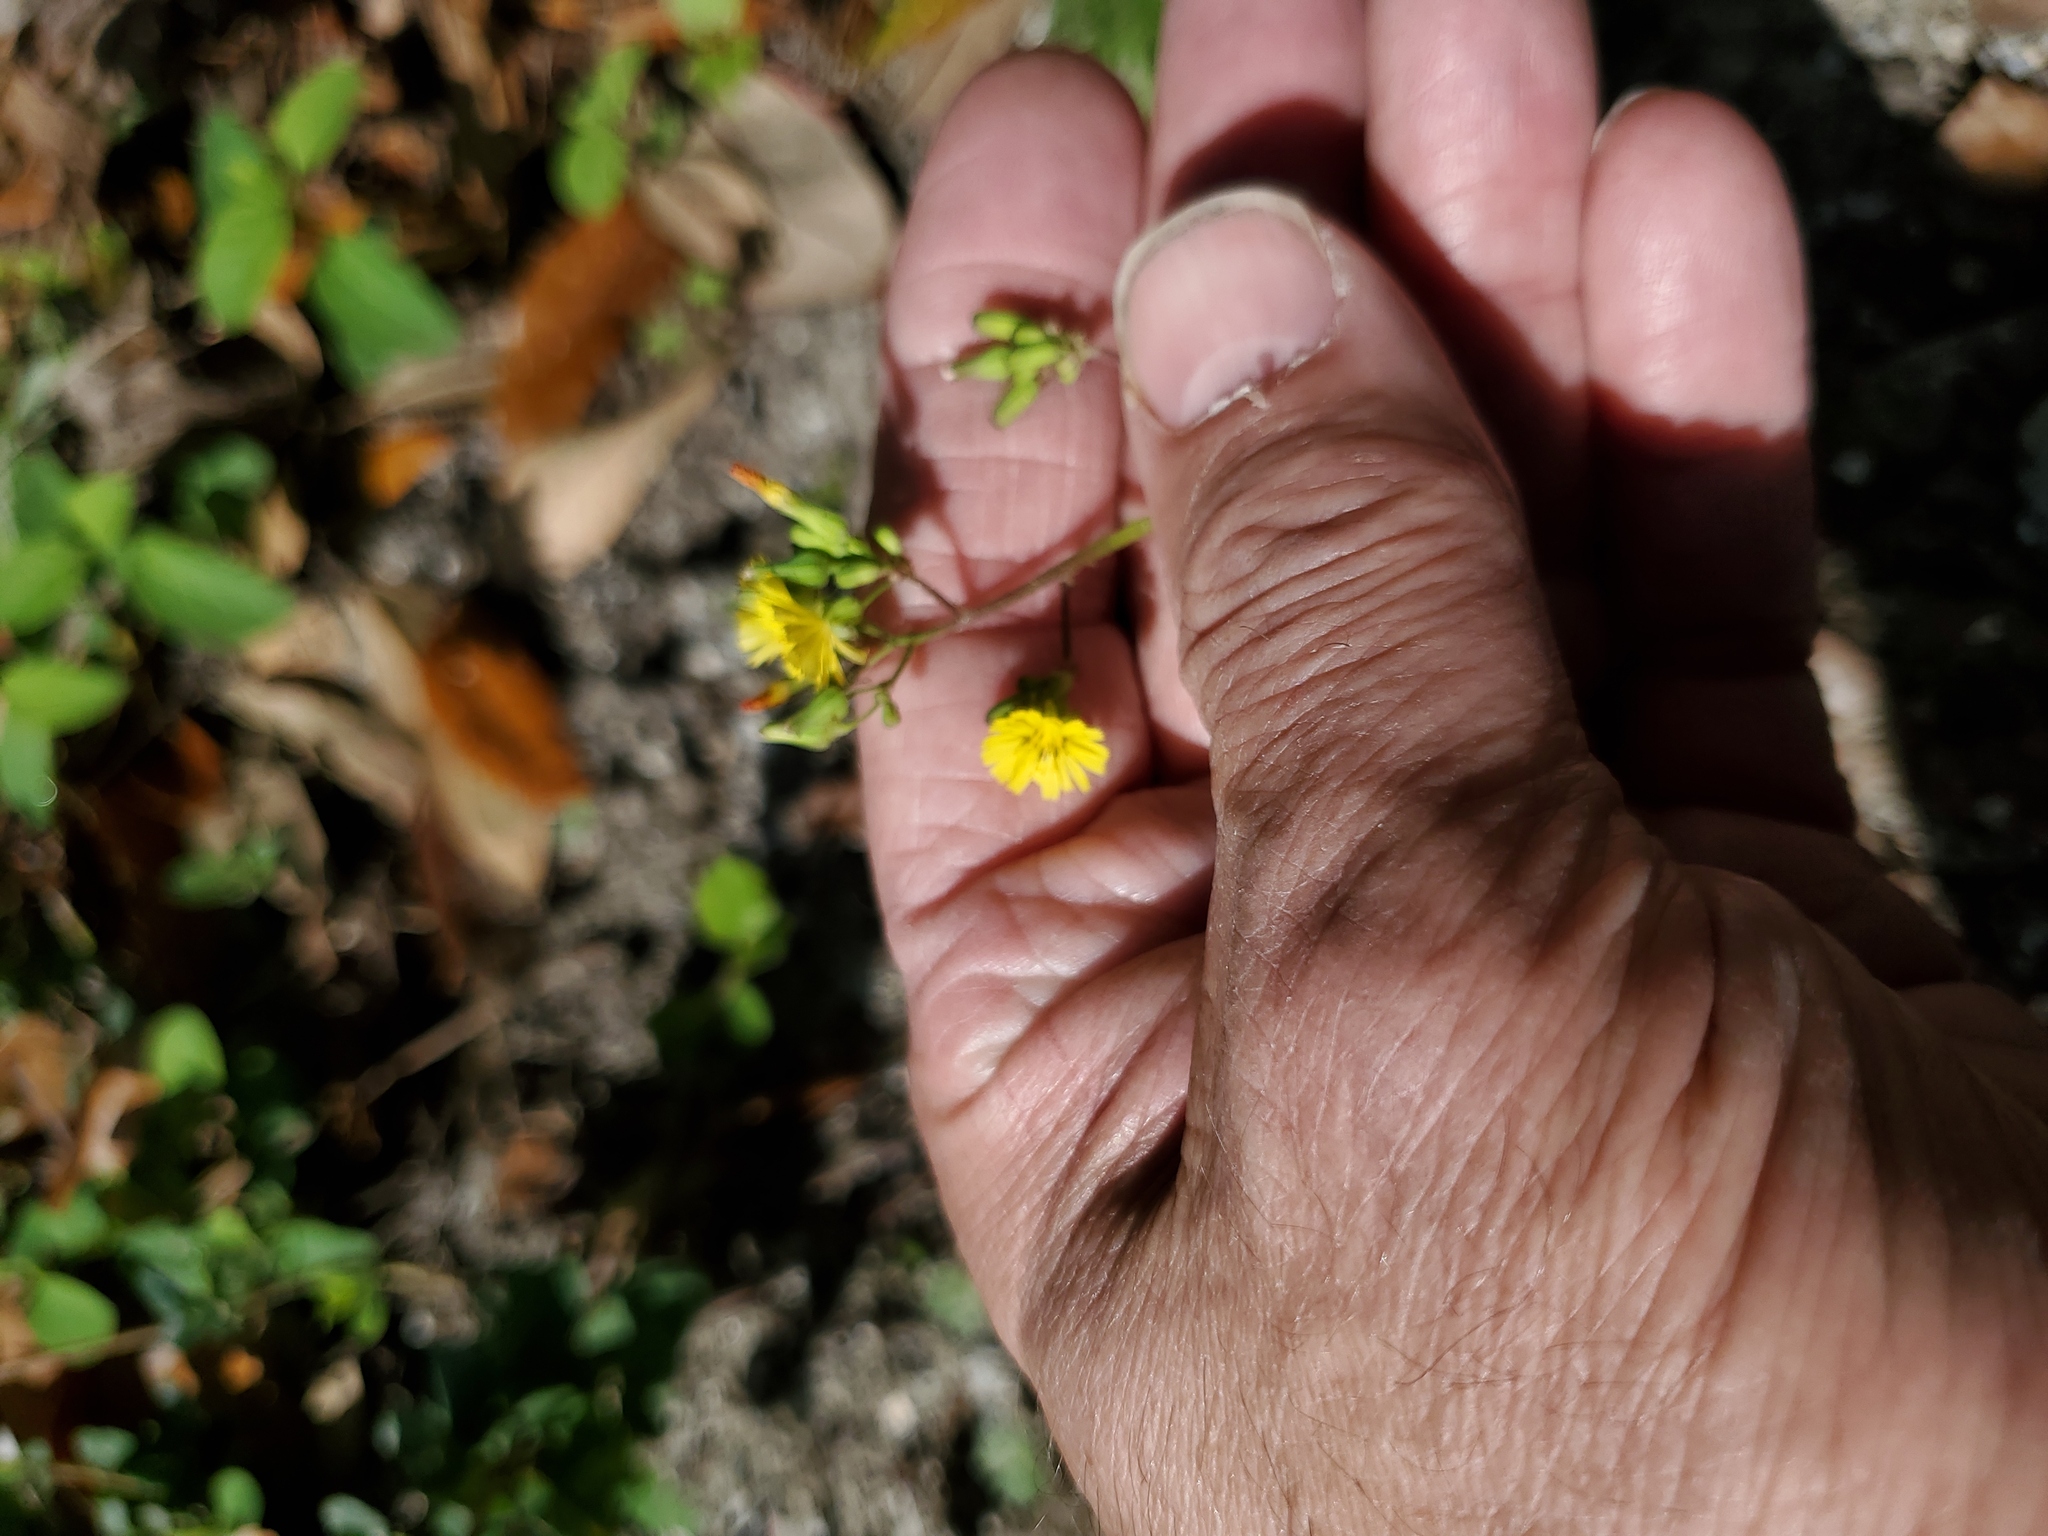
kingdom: Plantae
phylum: Tracheophyta
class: Magnoliopsida
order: Asterales
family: Asteraceae
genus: Youngia
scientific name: Youngia japonica
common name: Oriental false hawksbeard
